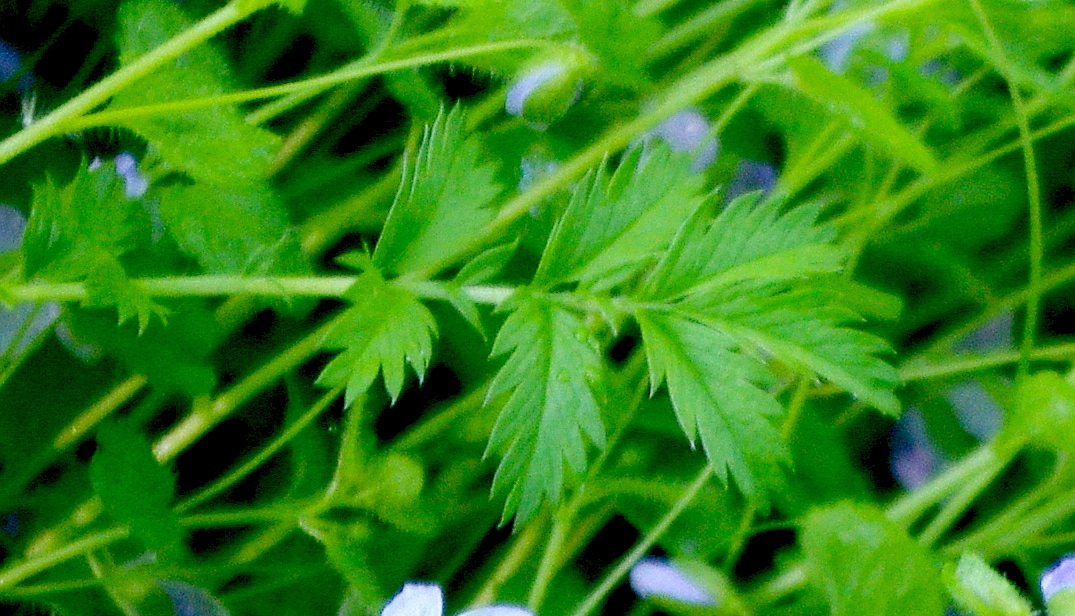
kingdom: Plantae
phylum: Tracheophyta
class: Magnoliopsida
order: Rosales
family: Rosaceae
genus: Argentina
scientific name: Argentina anserina
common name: Common silverweed
